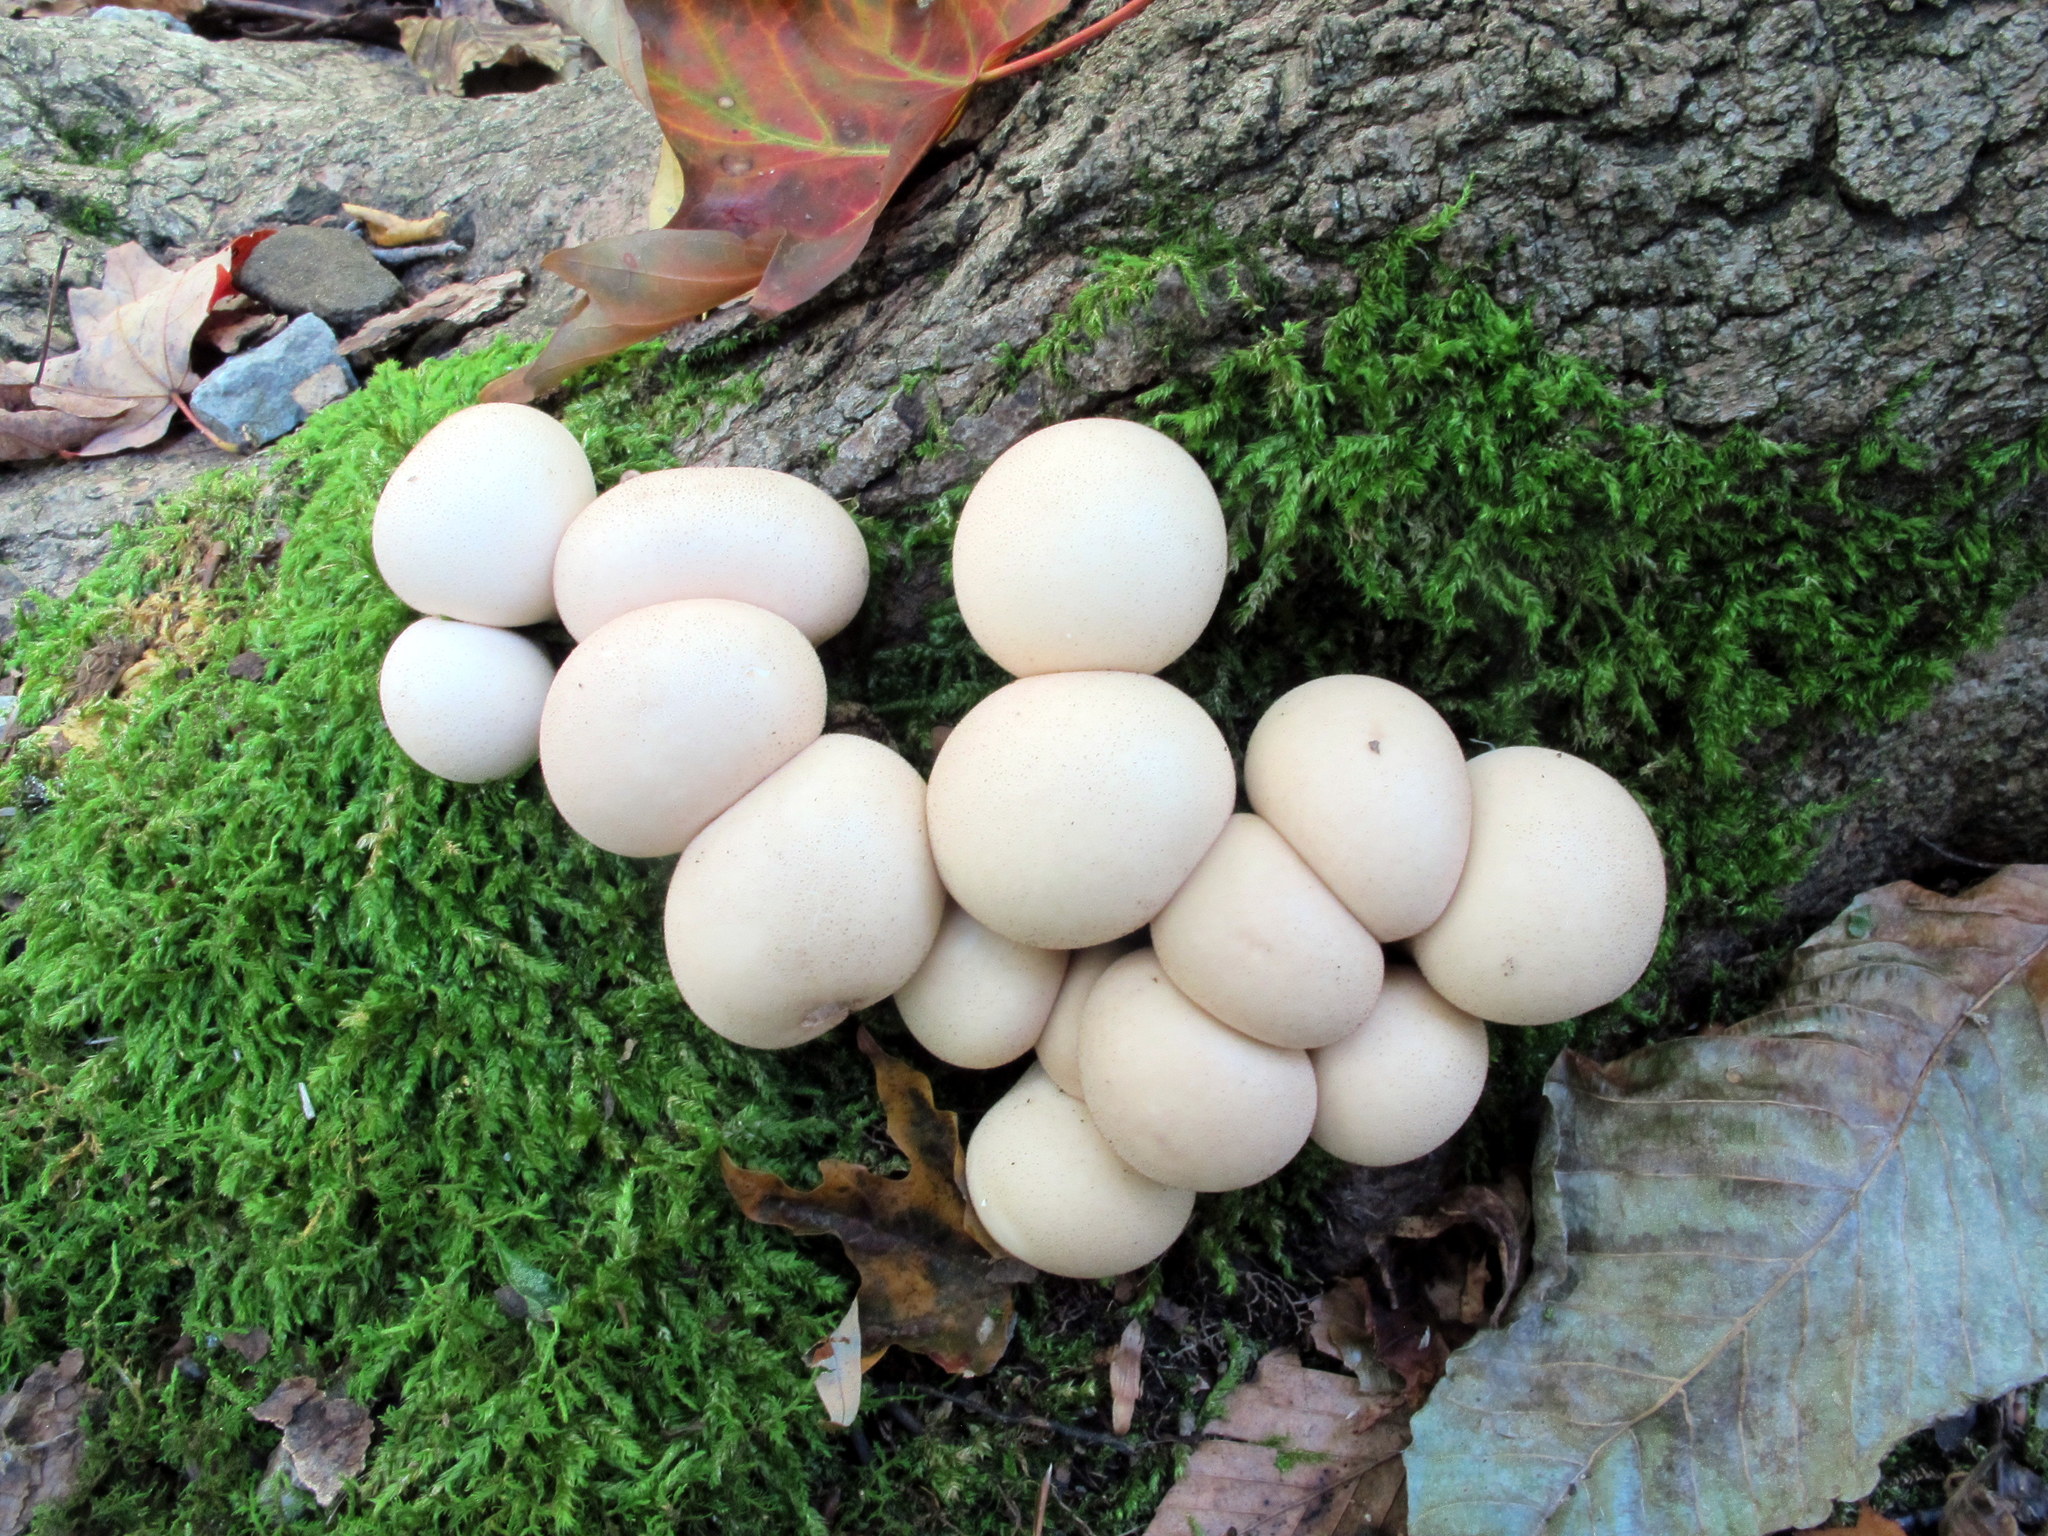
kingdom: Fungi
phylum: Basidiomycota
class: Agaricomycetes
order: Agaricales
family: Lycoperdaceae
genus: Apioperdon
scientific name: Apioperdon pyriforme
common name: Pear-shaped puffball
